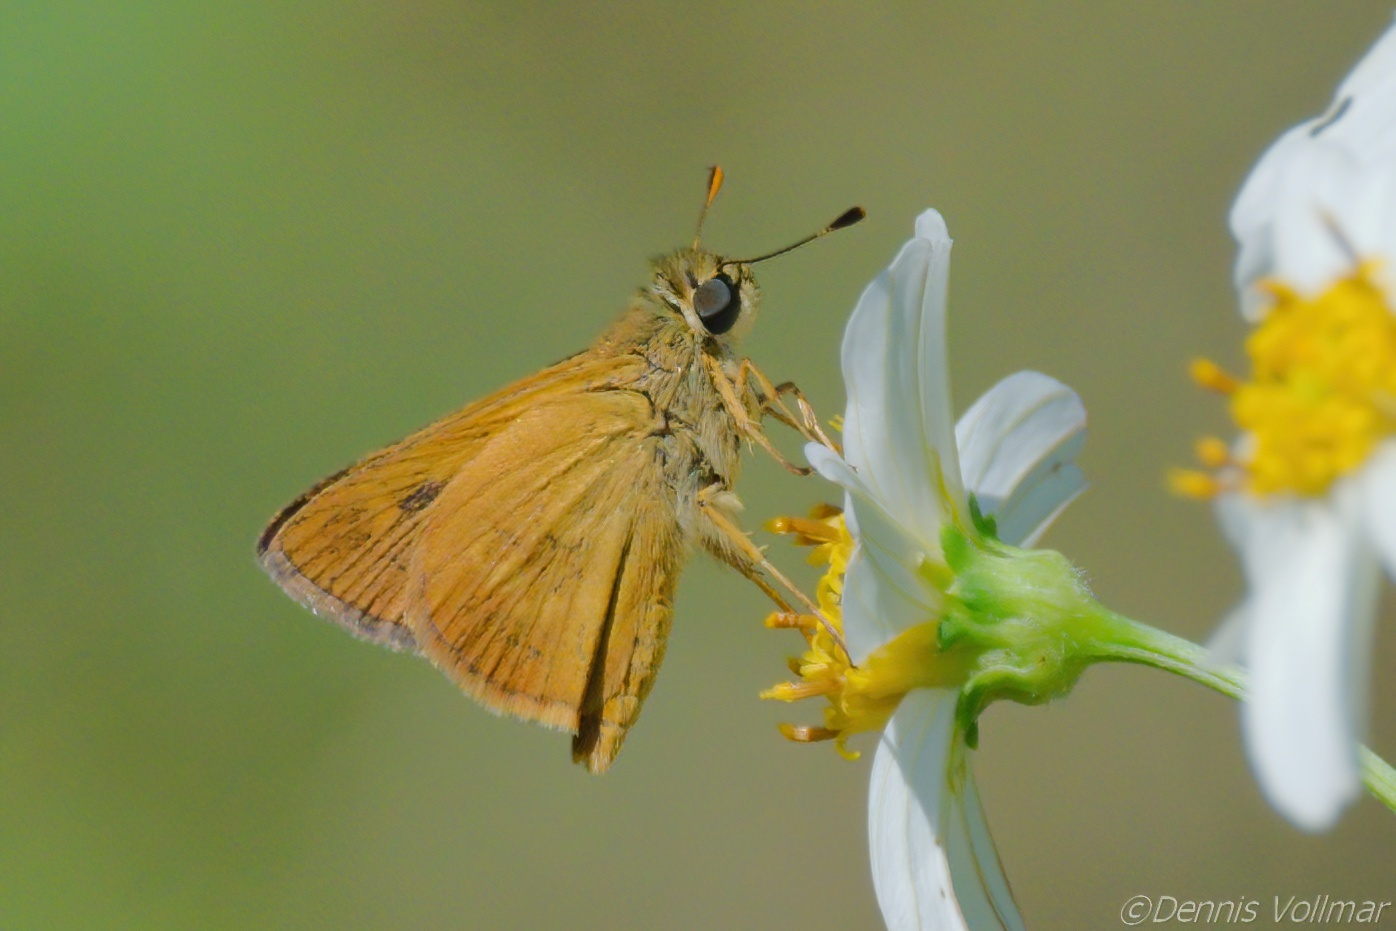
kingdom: Animalia
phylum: Arthropoda
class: Insecta
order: Lepidoptera
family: Hesperiidae
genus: Polites
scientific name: Polites otho
